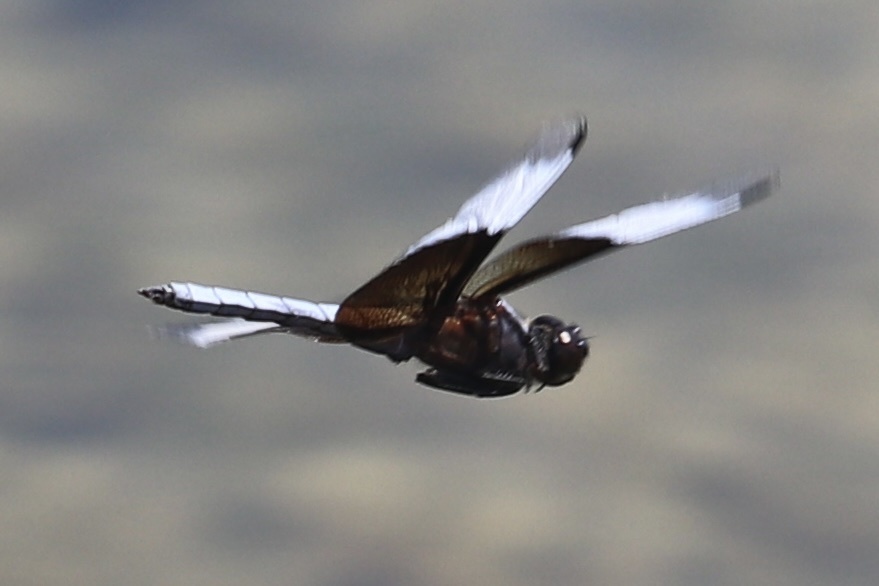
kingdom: Animalia
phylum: Arthropoda
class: Insecta
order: Odonata
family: Libellulidae
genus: Libellula
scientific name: Libellula luctuosa
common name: Widow skimmer
